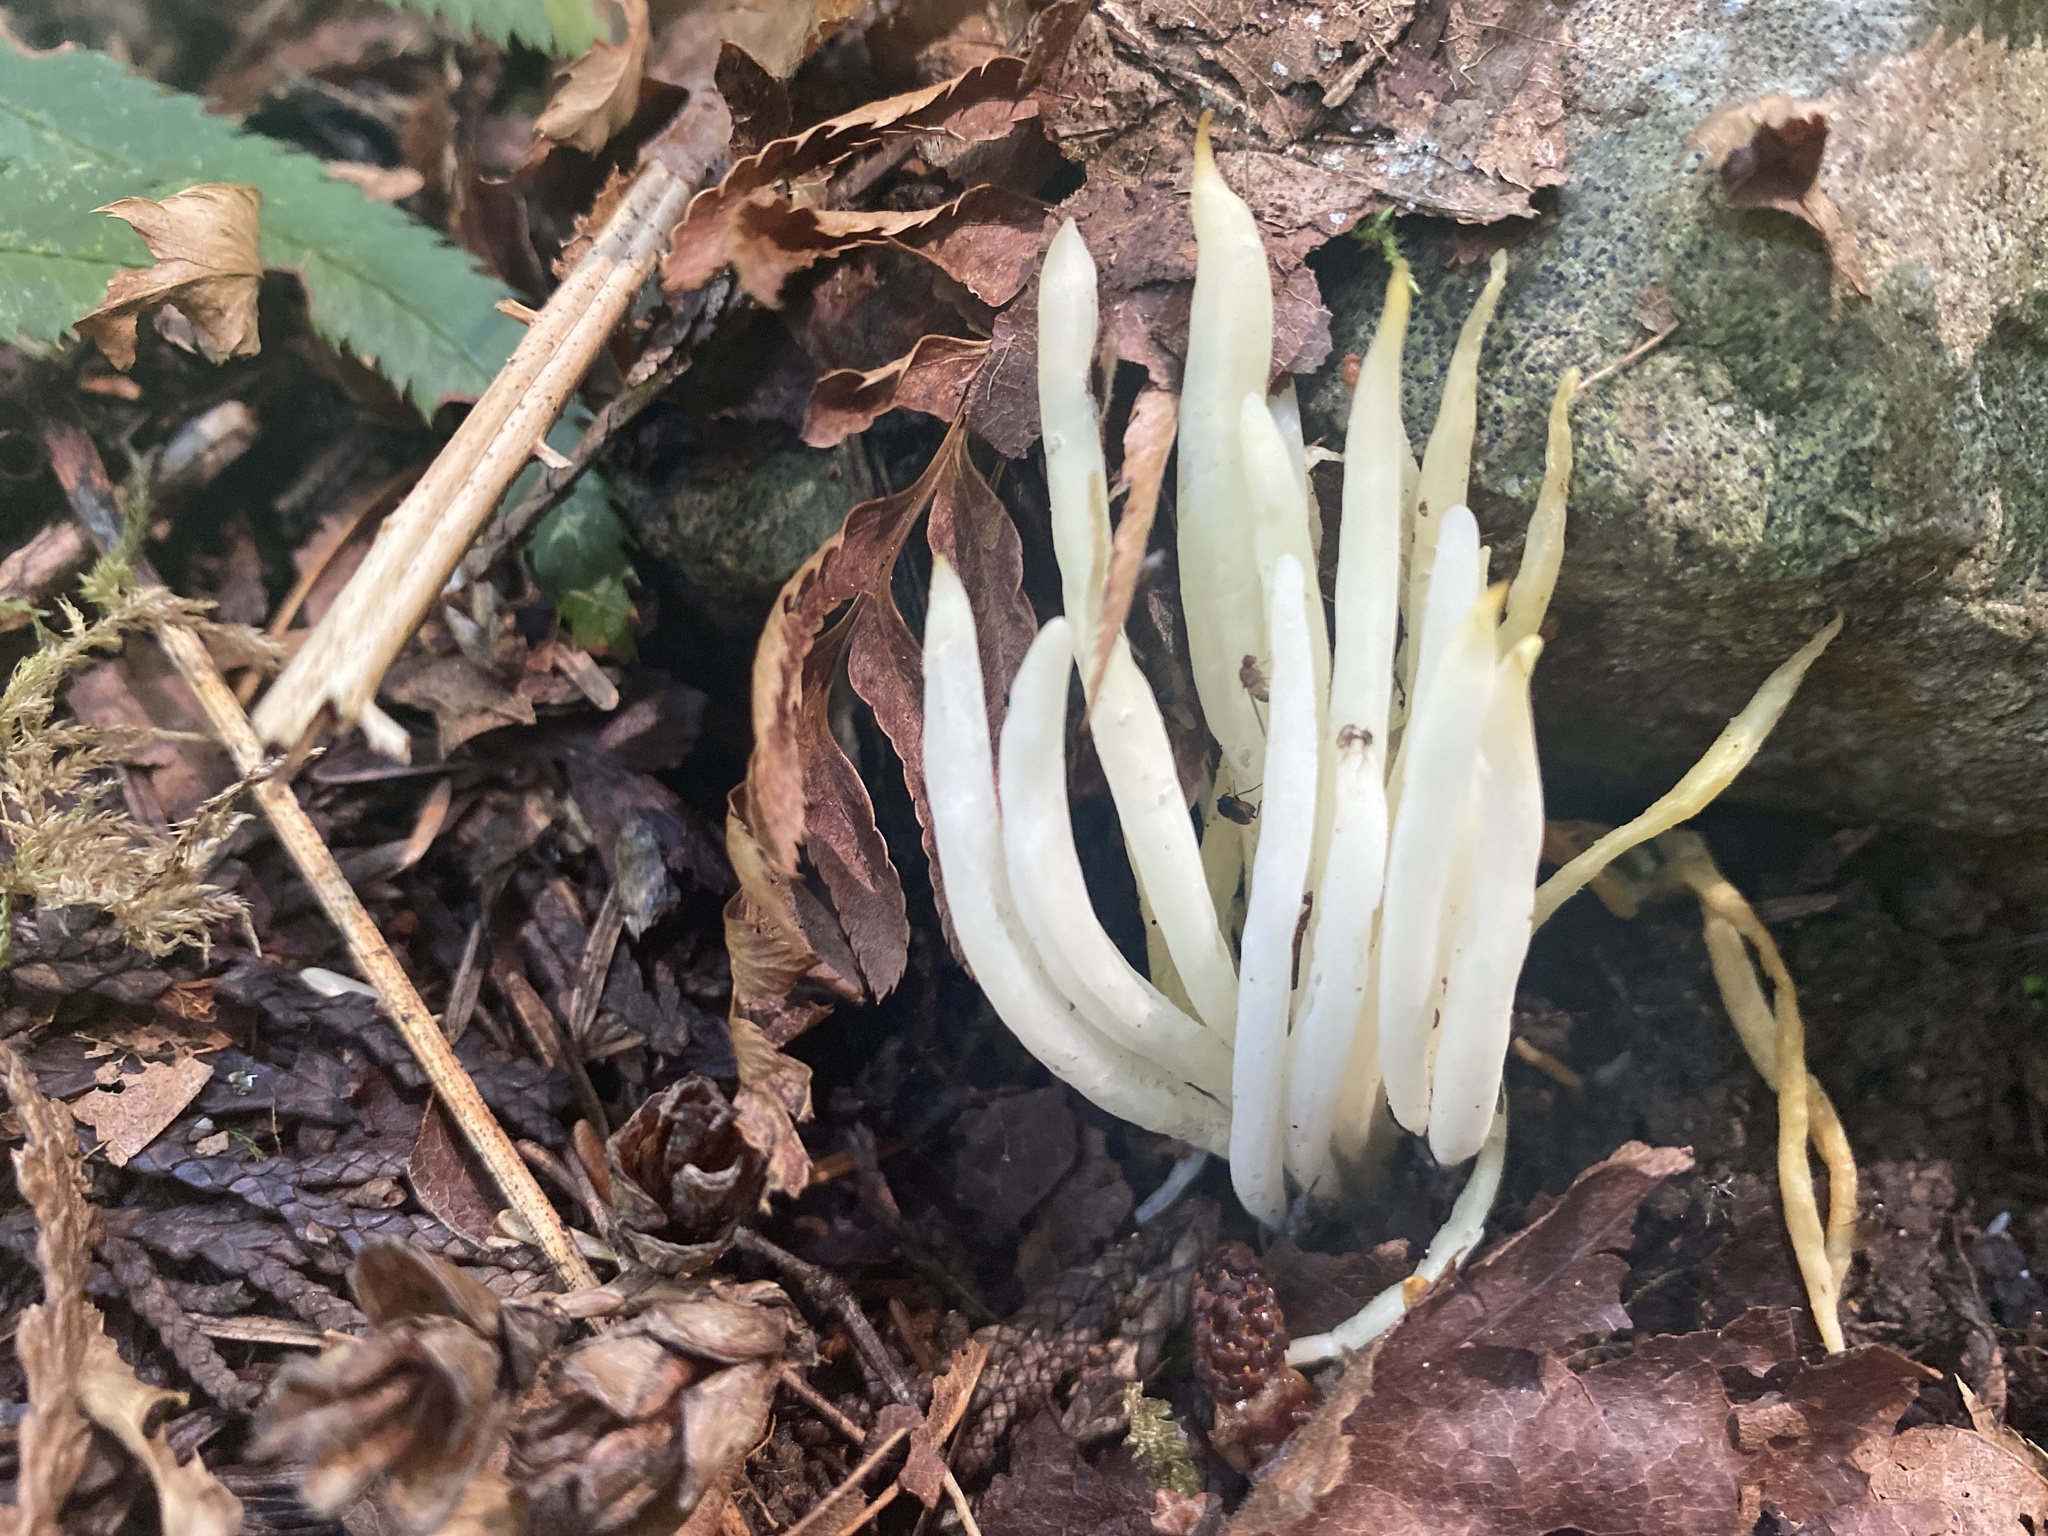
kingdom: Fungi
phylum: Basidiomycota
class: Agaricomycetes
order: Agaricales
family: Clavariaceae
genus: Clavaria
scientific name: Clavaria fragilis
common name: White spindles
